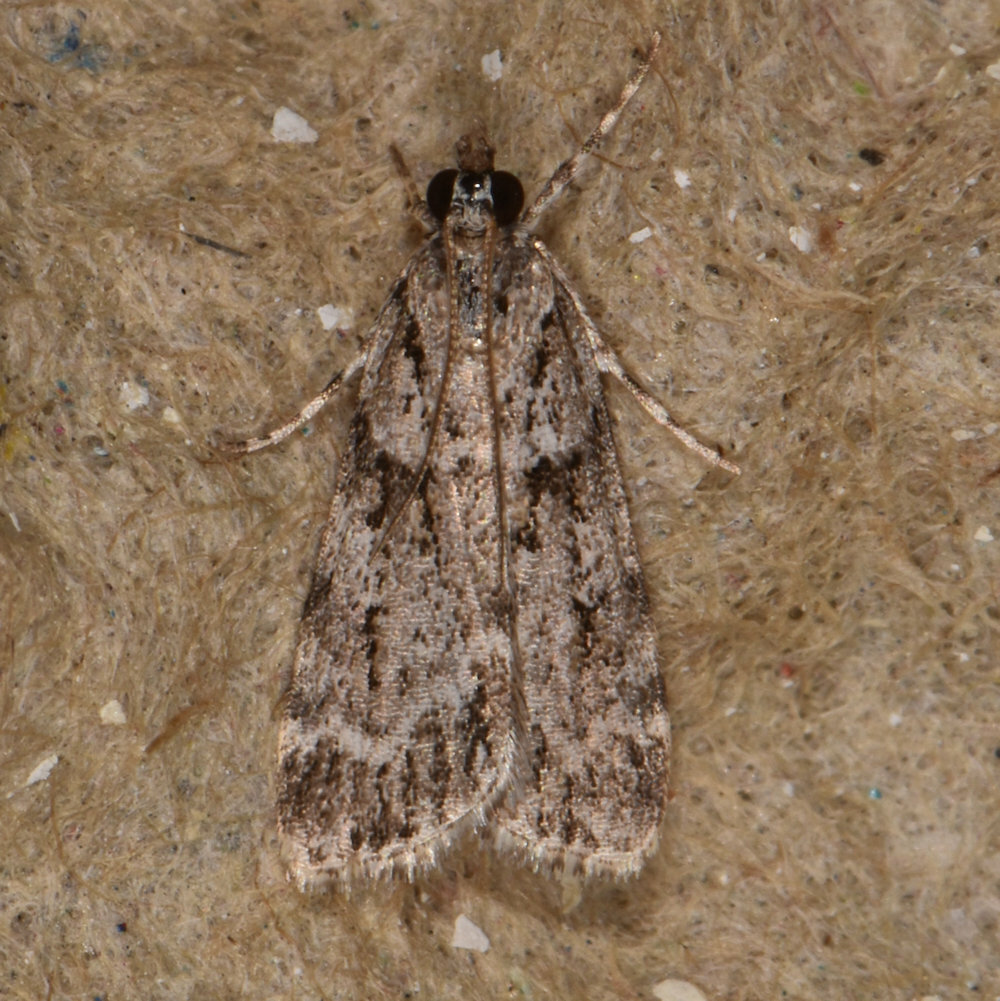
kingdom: Animalia
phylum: Arthropoda
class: Insecta
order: Lepidoptera
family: Crambidae
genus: Scoparia
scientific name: Scoparia biplagialis
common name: Double-striped scoparia moth
